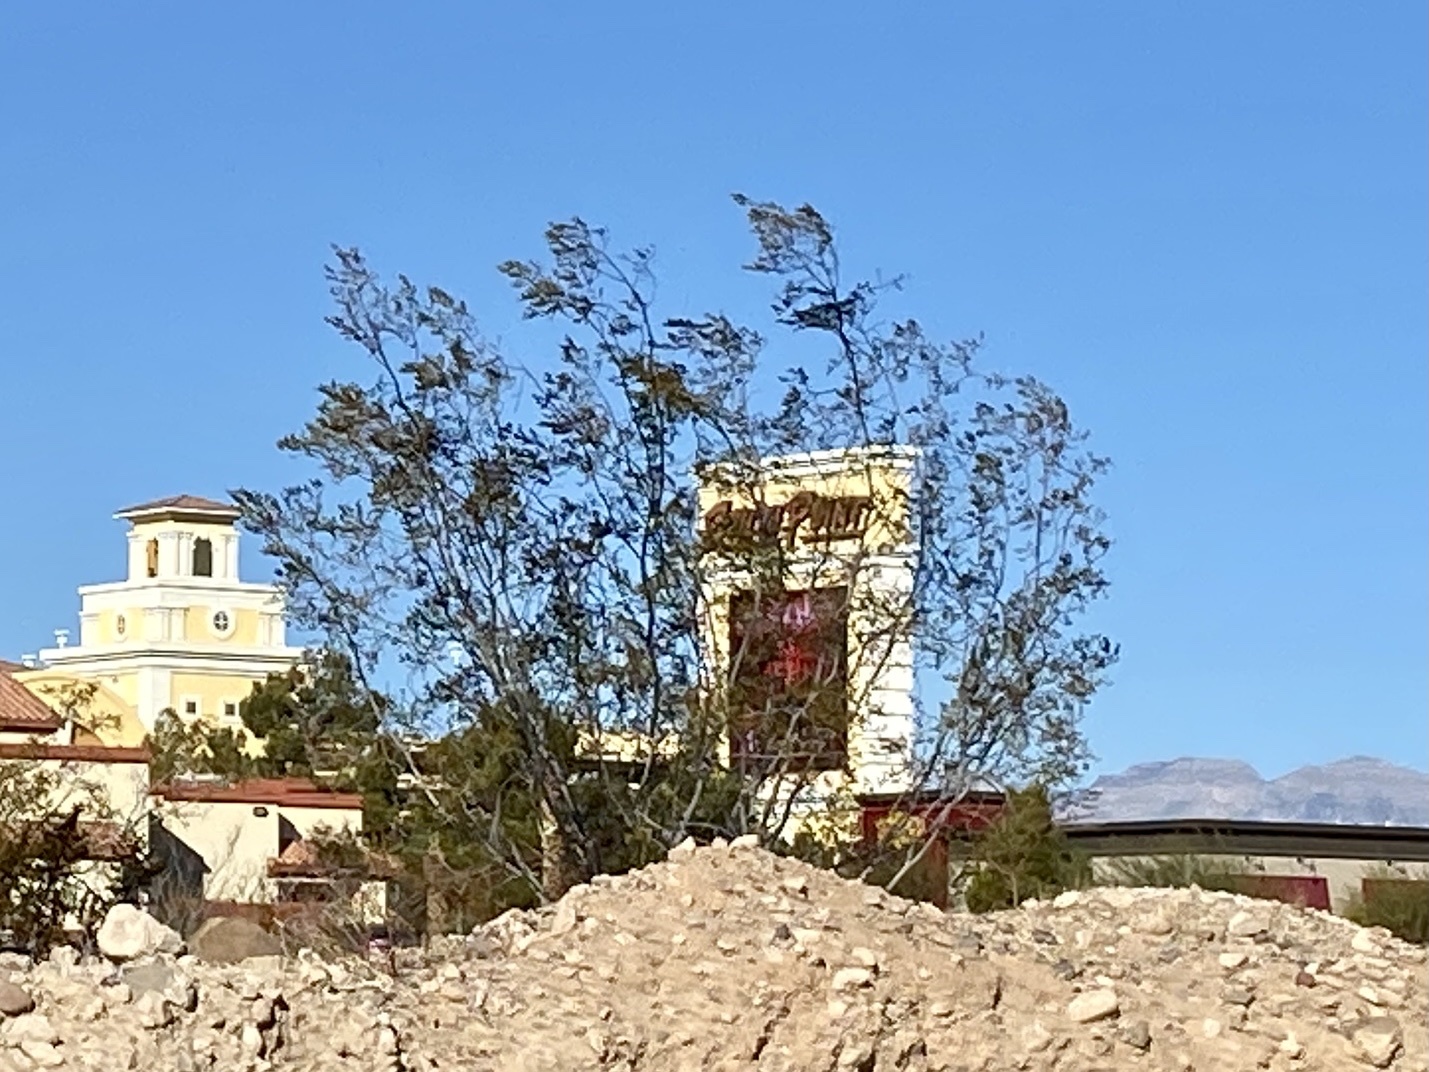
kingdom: Plantae
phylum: Tracheophyta
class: Magnoliopsida
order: Zygophyllales
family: Zygophyllaceae
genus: Larrea
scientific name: Larrea tridentata
